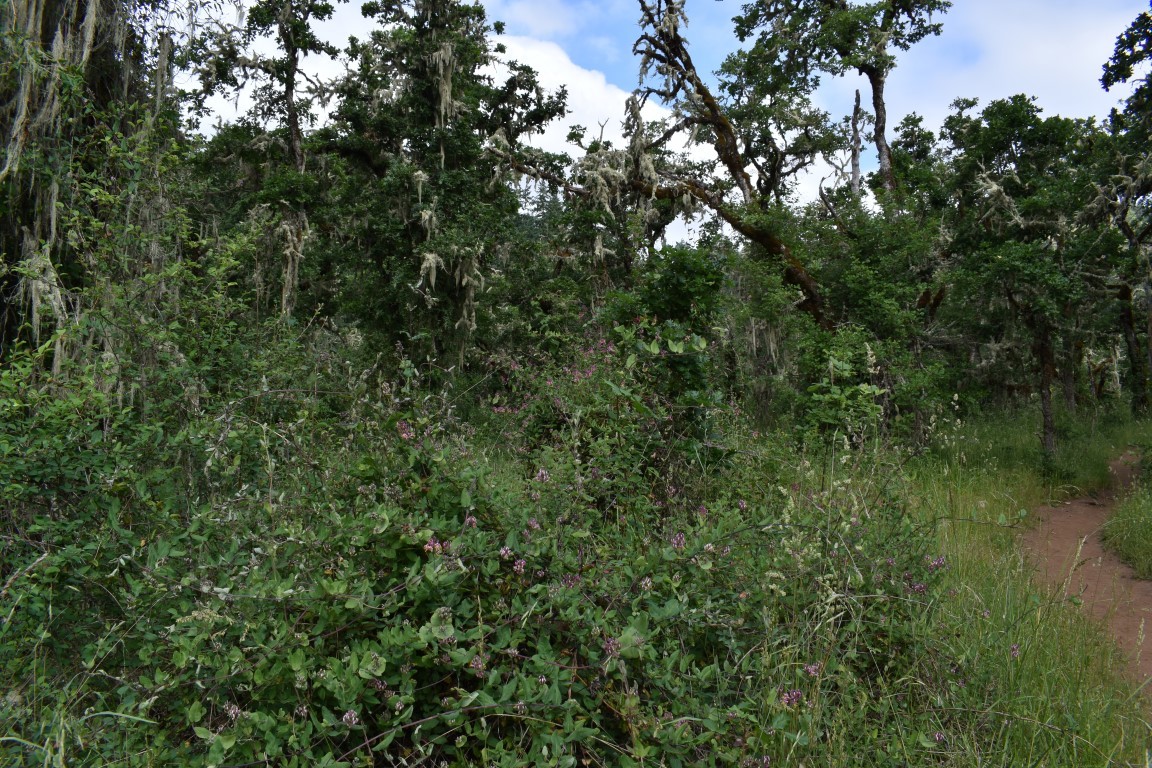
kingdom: Plantae
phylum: Tracheophyta
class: Magnoliopsida
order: Dipsacales
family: Caprifoliaceae
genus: Lonicera
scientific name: Lonicera hispidula
